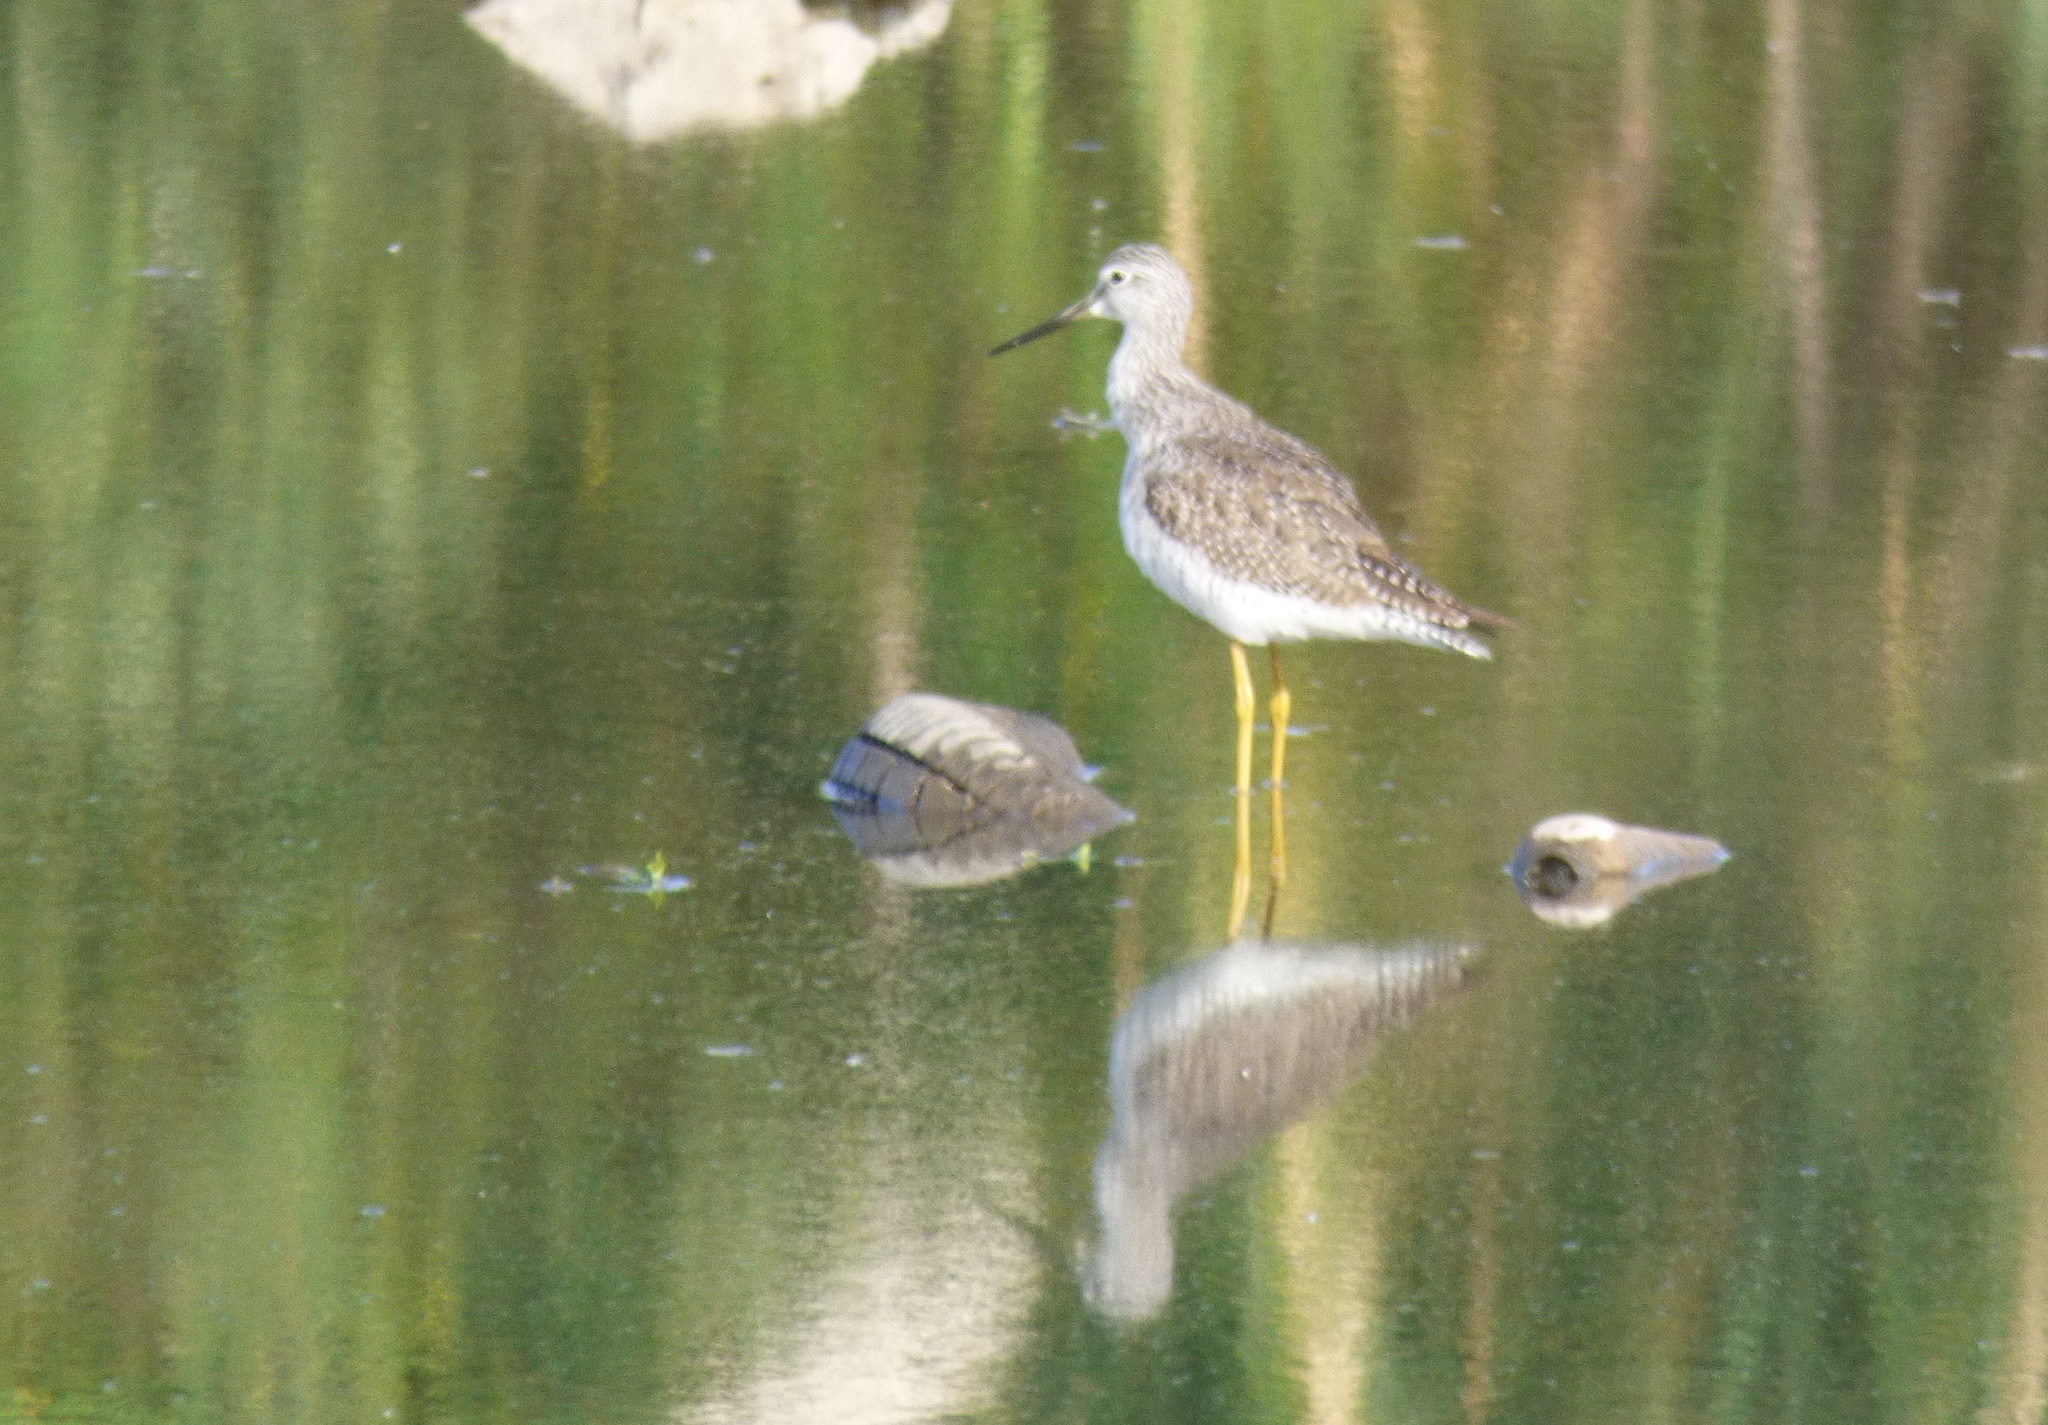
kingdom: Animalia
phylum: Chordata
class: Aves
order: Charadriiformes
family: Scolopacidae
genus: Tringa
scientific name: Tringa melanoleuca
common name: Greater yellowlegs
